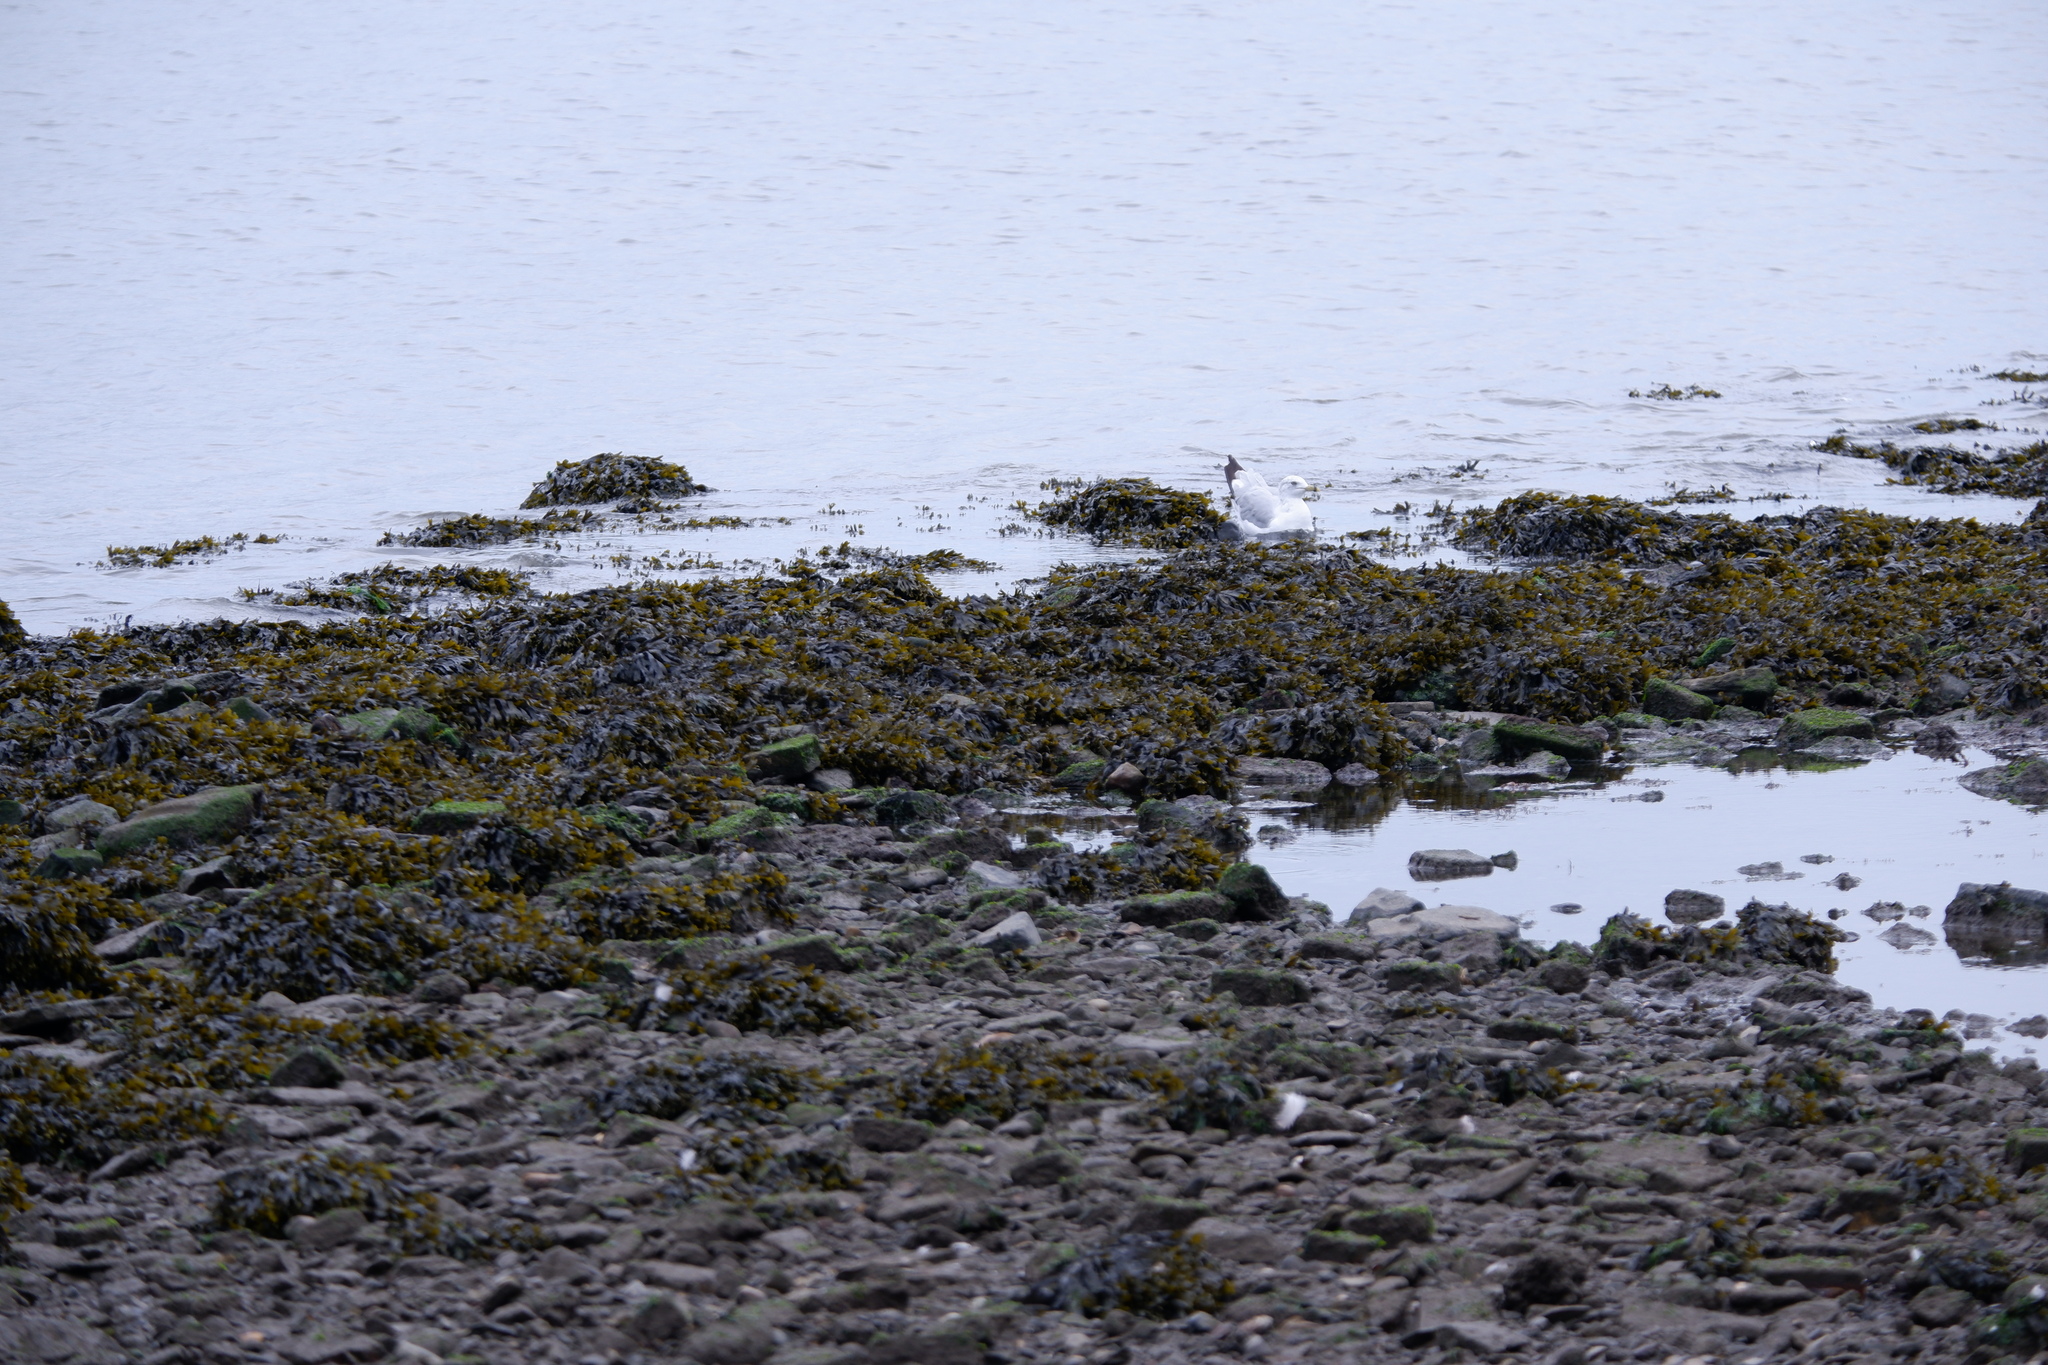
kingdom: Animalia
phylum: Chordata
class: Aves
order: Charadriiformes
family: Laridae
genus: Larus
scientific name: Larus delawarensis
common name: Ring-billed gull
